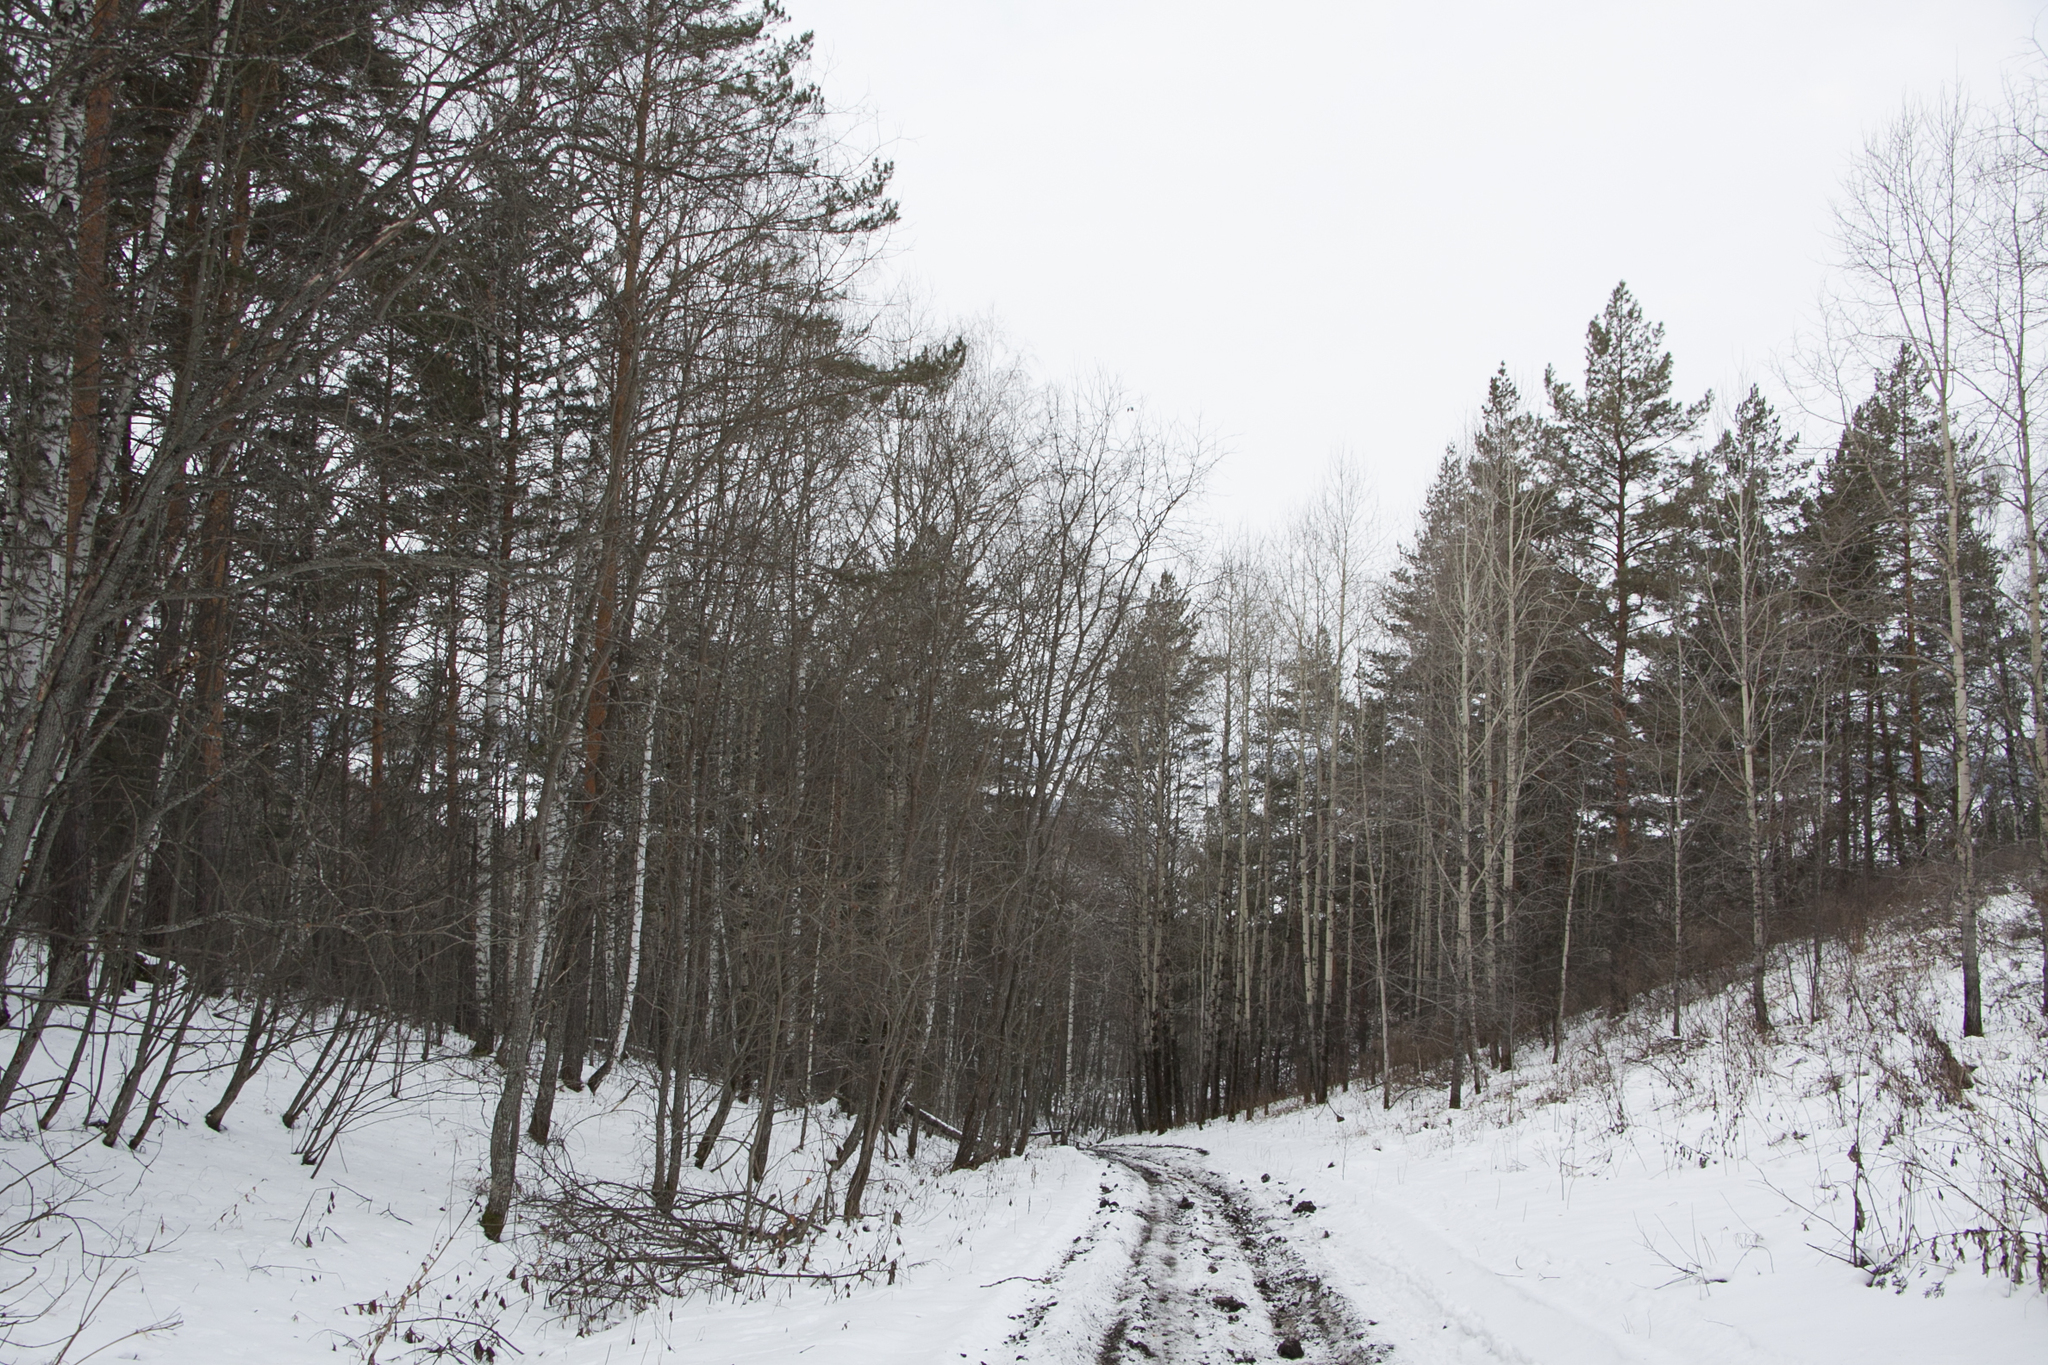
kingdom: Plantae
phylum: Tracheophyta
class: Pinopsida
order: Pinales
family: Pinaceae
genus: Pinus
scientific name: Pinus sylvestris
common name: Scots pine
